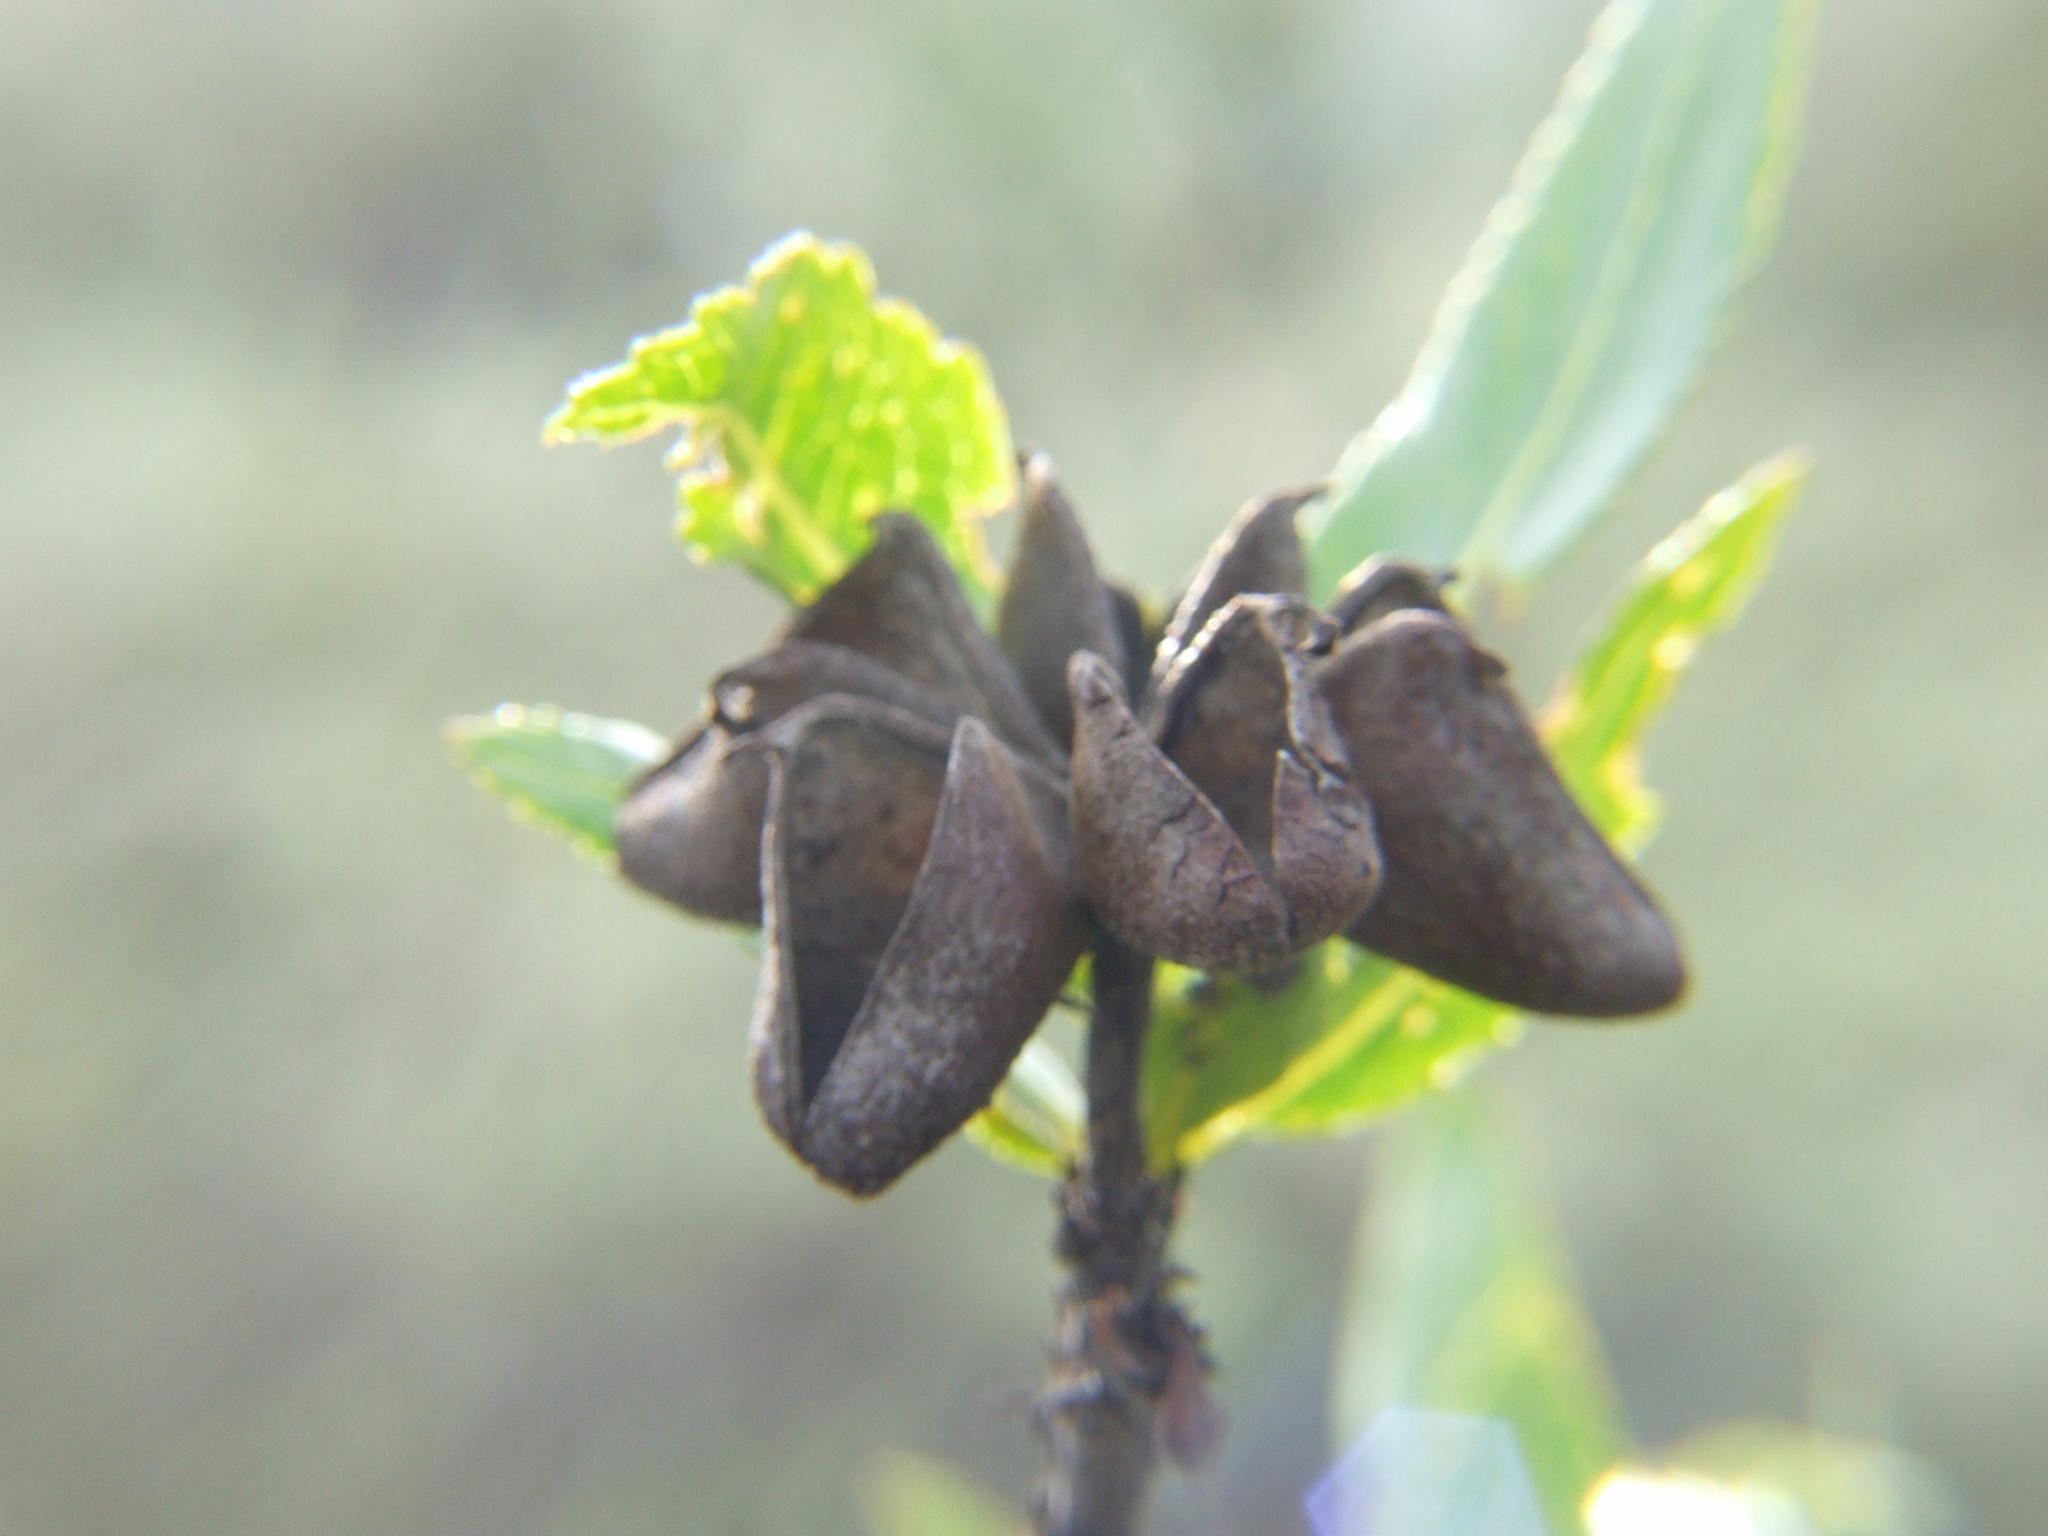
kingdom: Plantae
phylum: Tracheophyta
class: Magnoliopsida
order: Rosales
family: Rosaceae
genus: Kageneckia
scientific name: Kageneckia lanceolata
